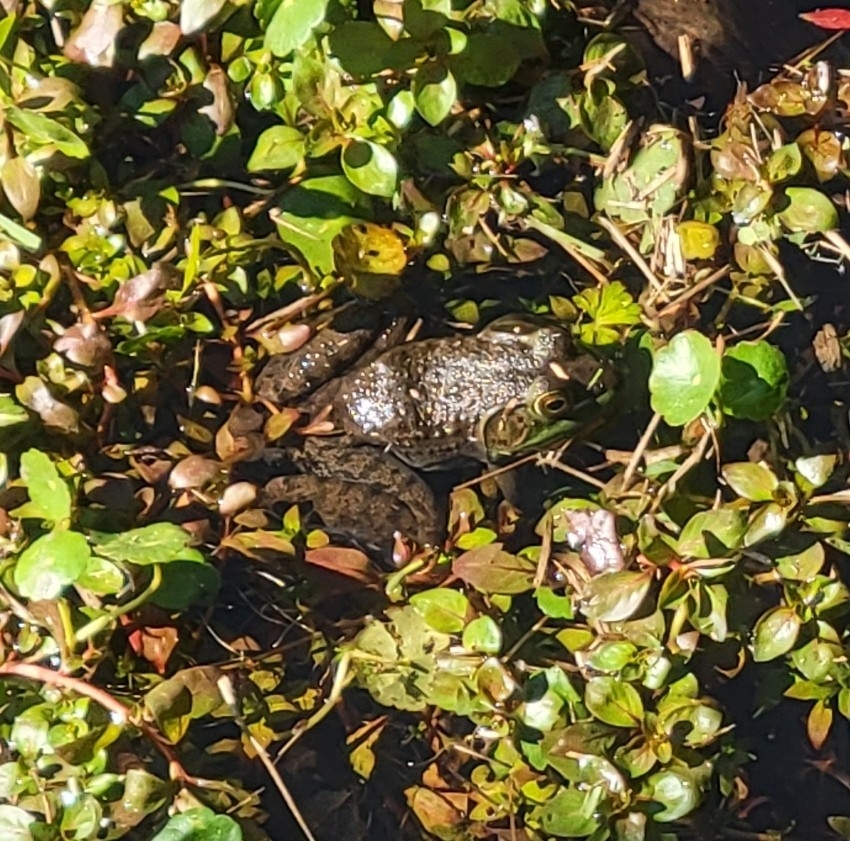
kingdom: Animalia
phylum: Chordata
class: Amphibia
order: Anura
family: Ranidae
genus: Lithobates
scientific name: Lithobates clamitans
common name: Green frog
